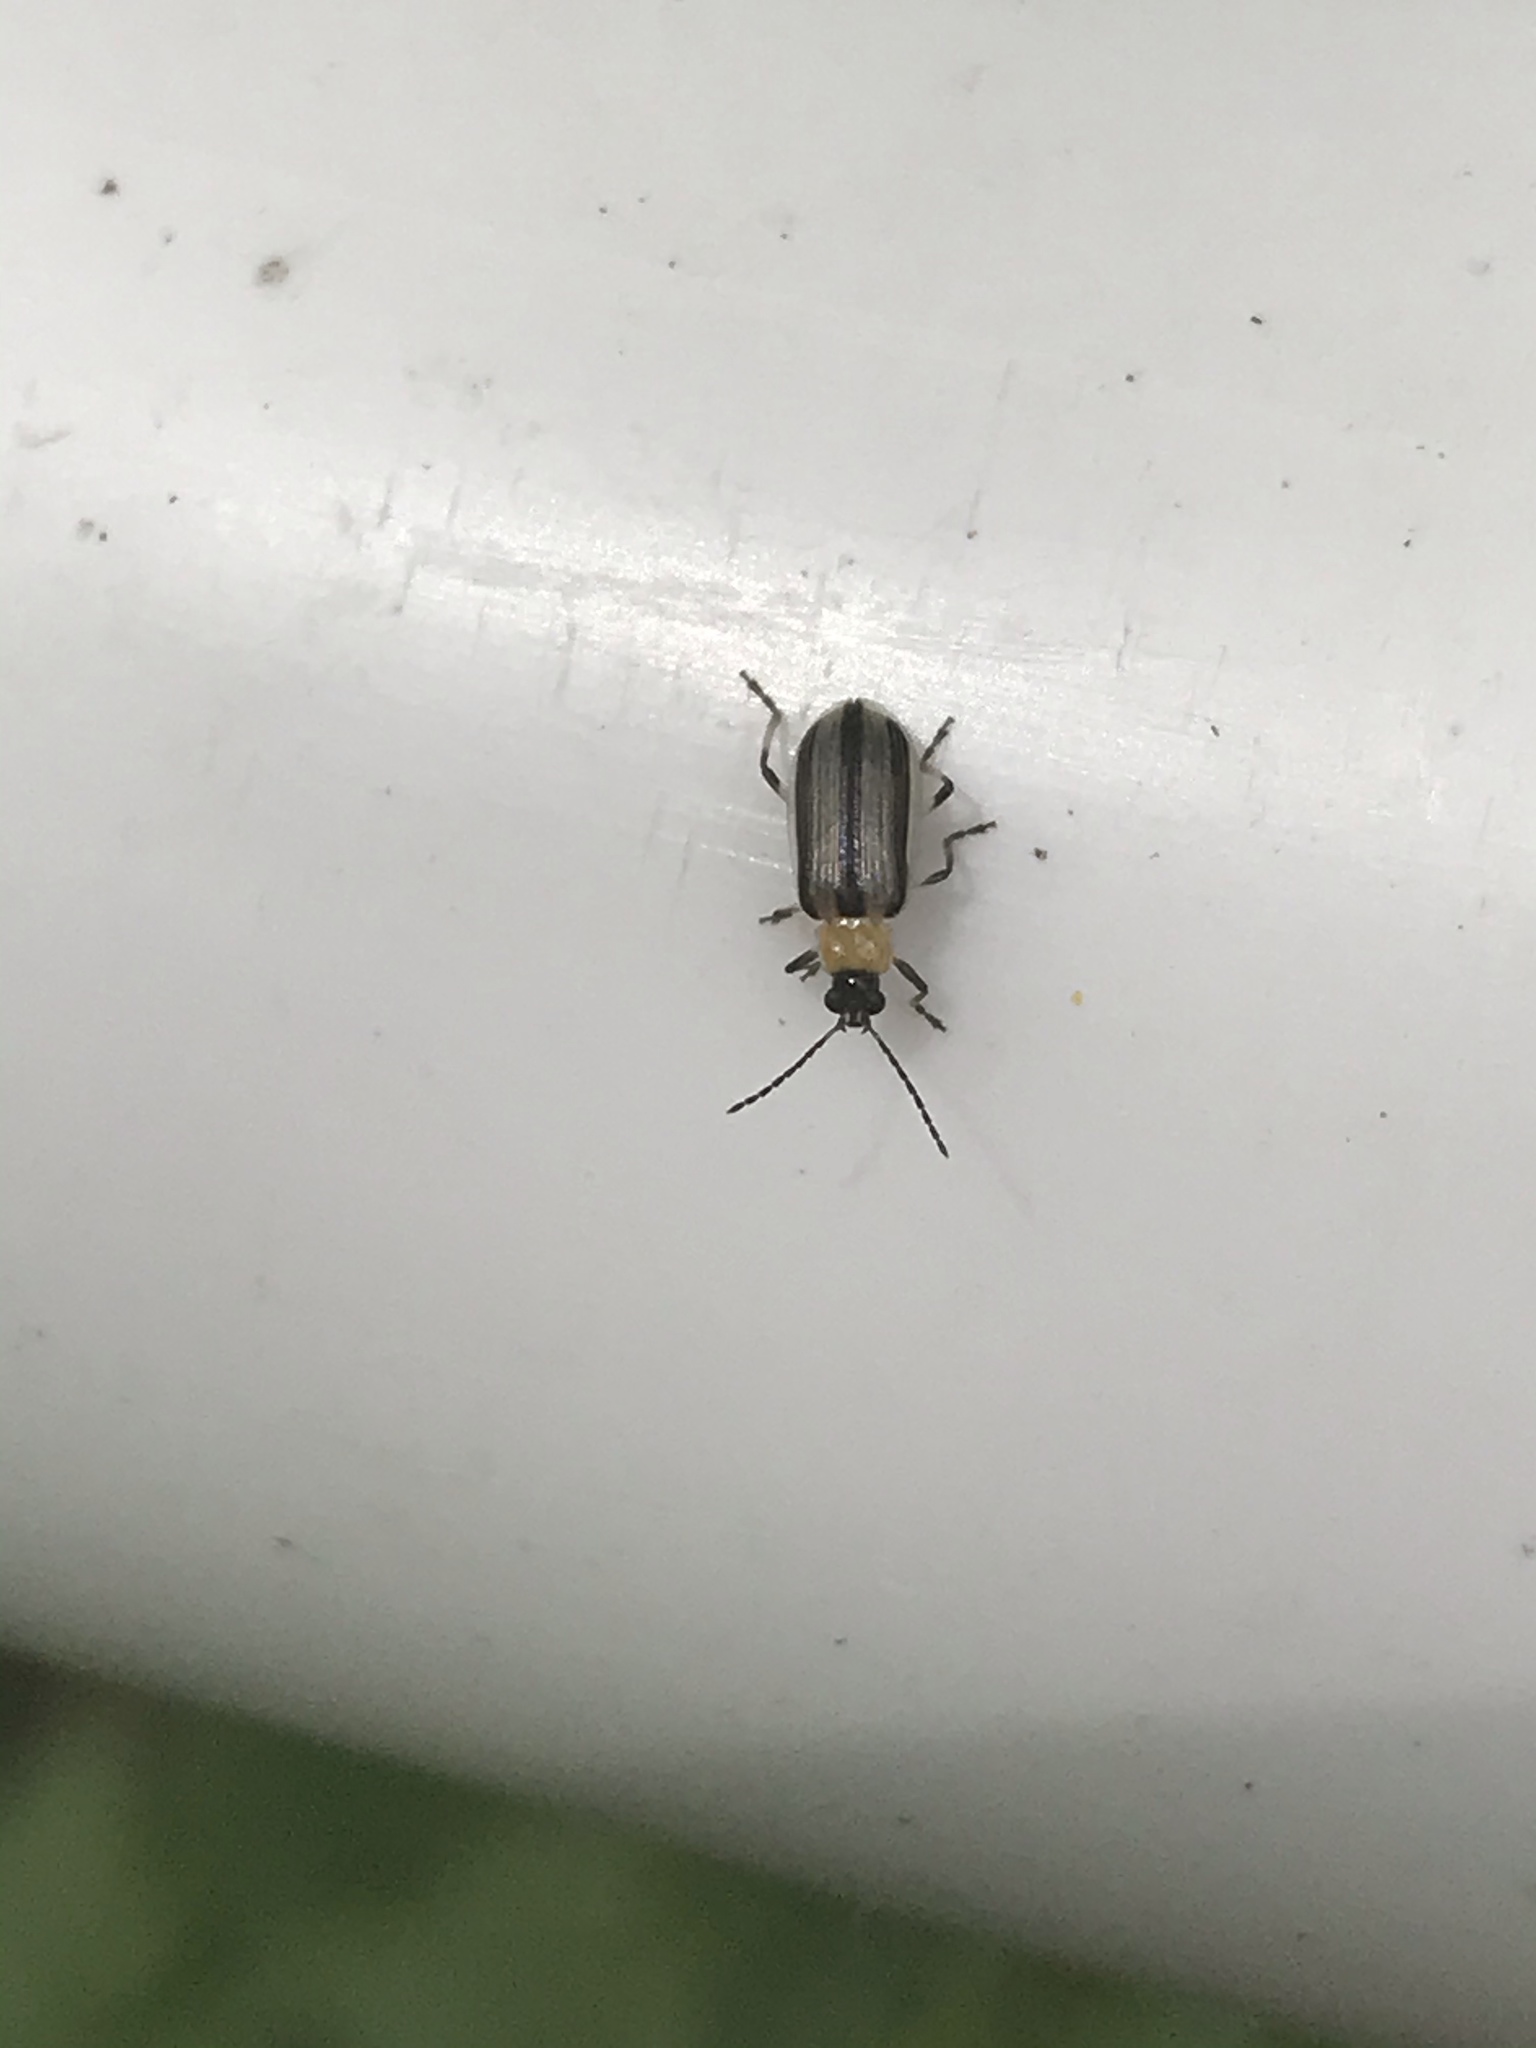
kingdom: Animalia
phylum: Arthropoda
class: Insecta
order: Coleoptera
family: Chrysomelidae
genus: Acalymma
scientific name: Acalymma vittatum
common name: Striped cucumber beetle
